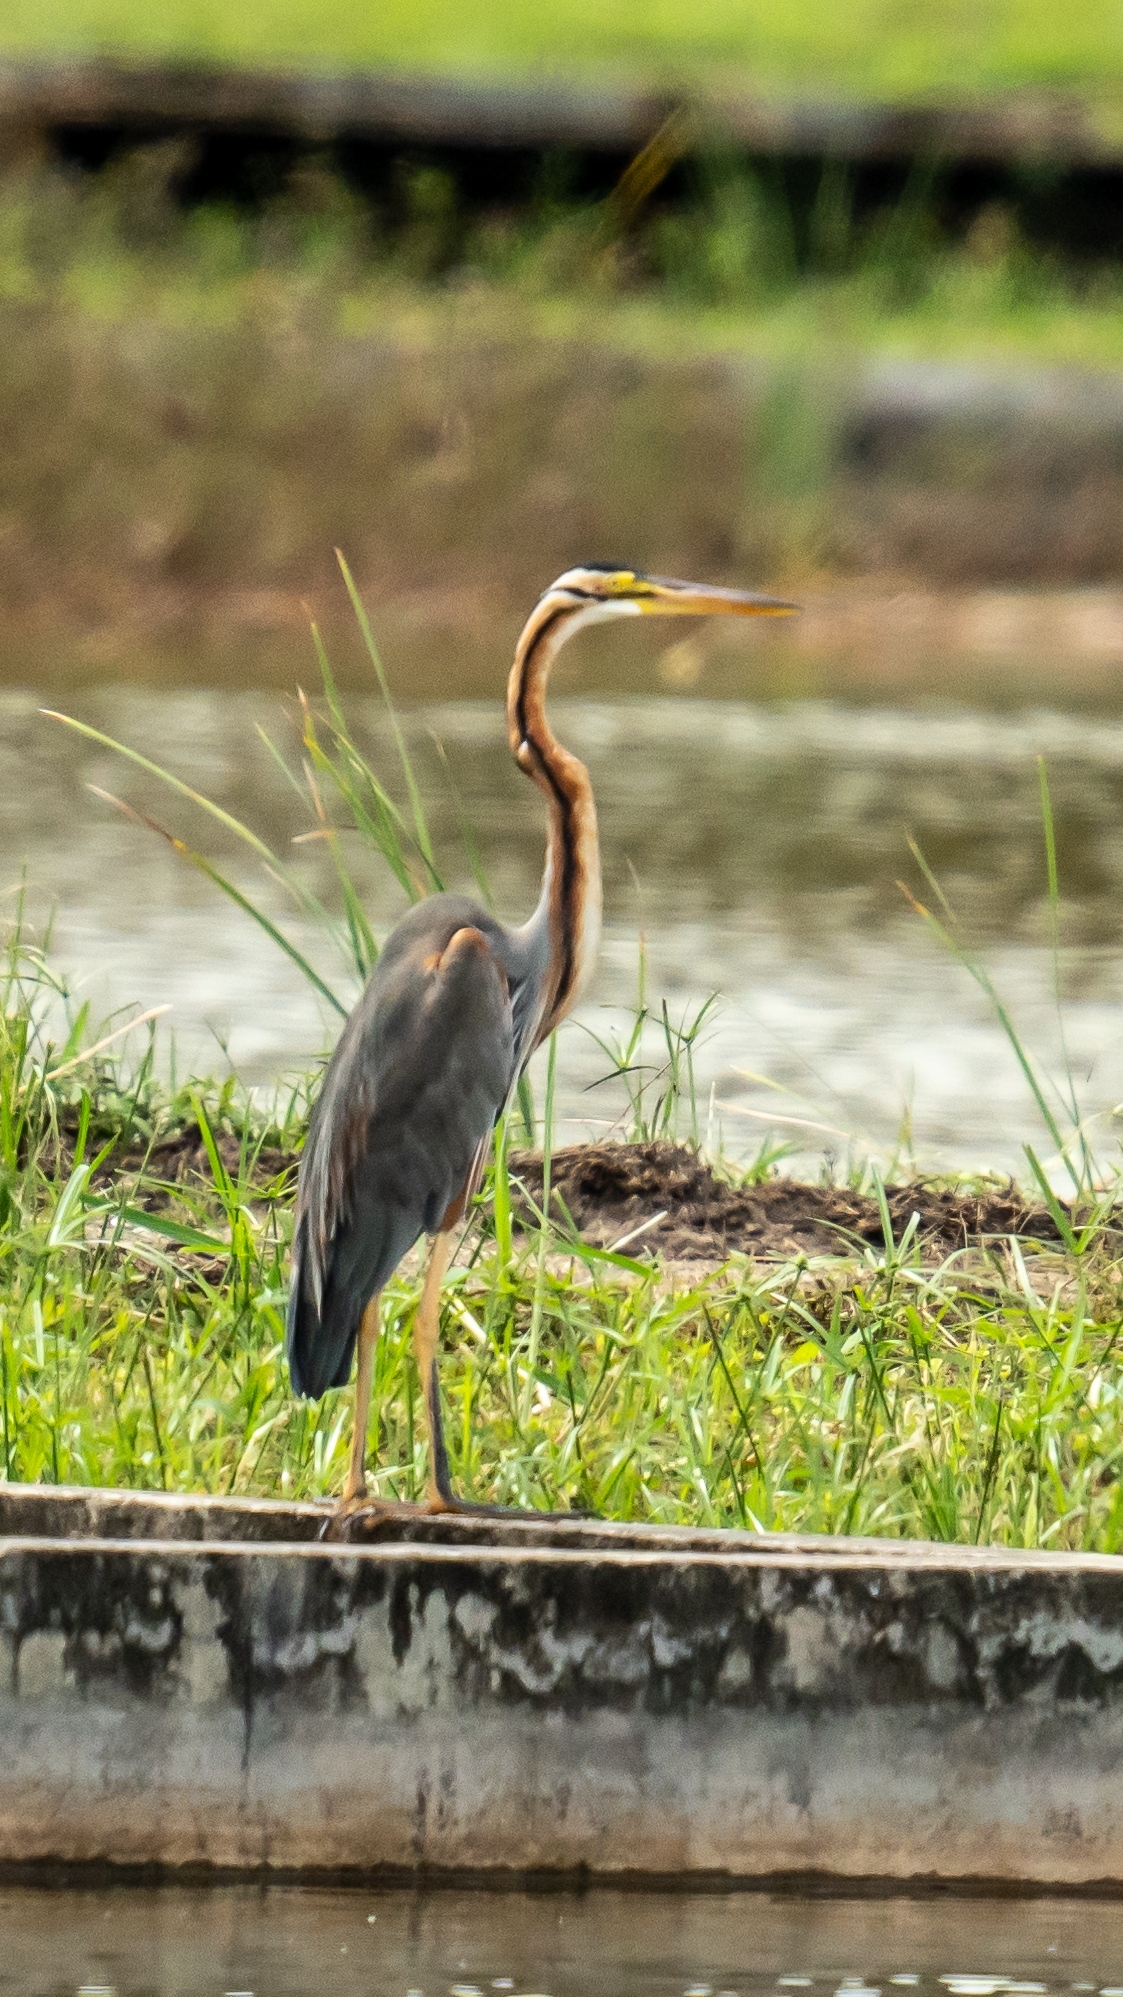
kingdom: Animalia
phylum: Chordata
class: Aves
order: Pelecaniformes
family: Ardeidae
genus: Ardea
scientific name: Ardea purpurea
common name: Purple heron
